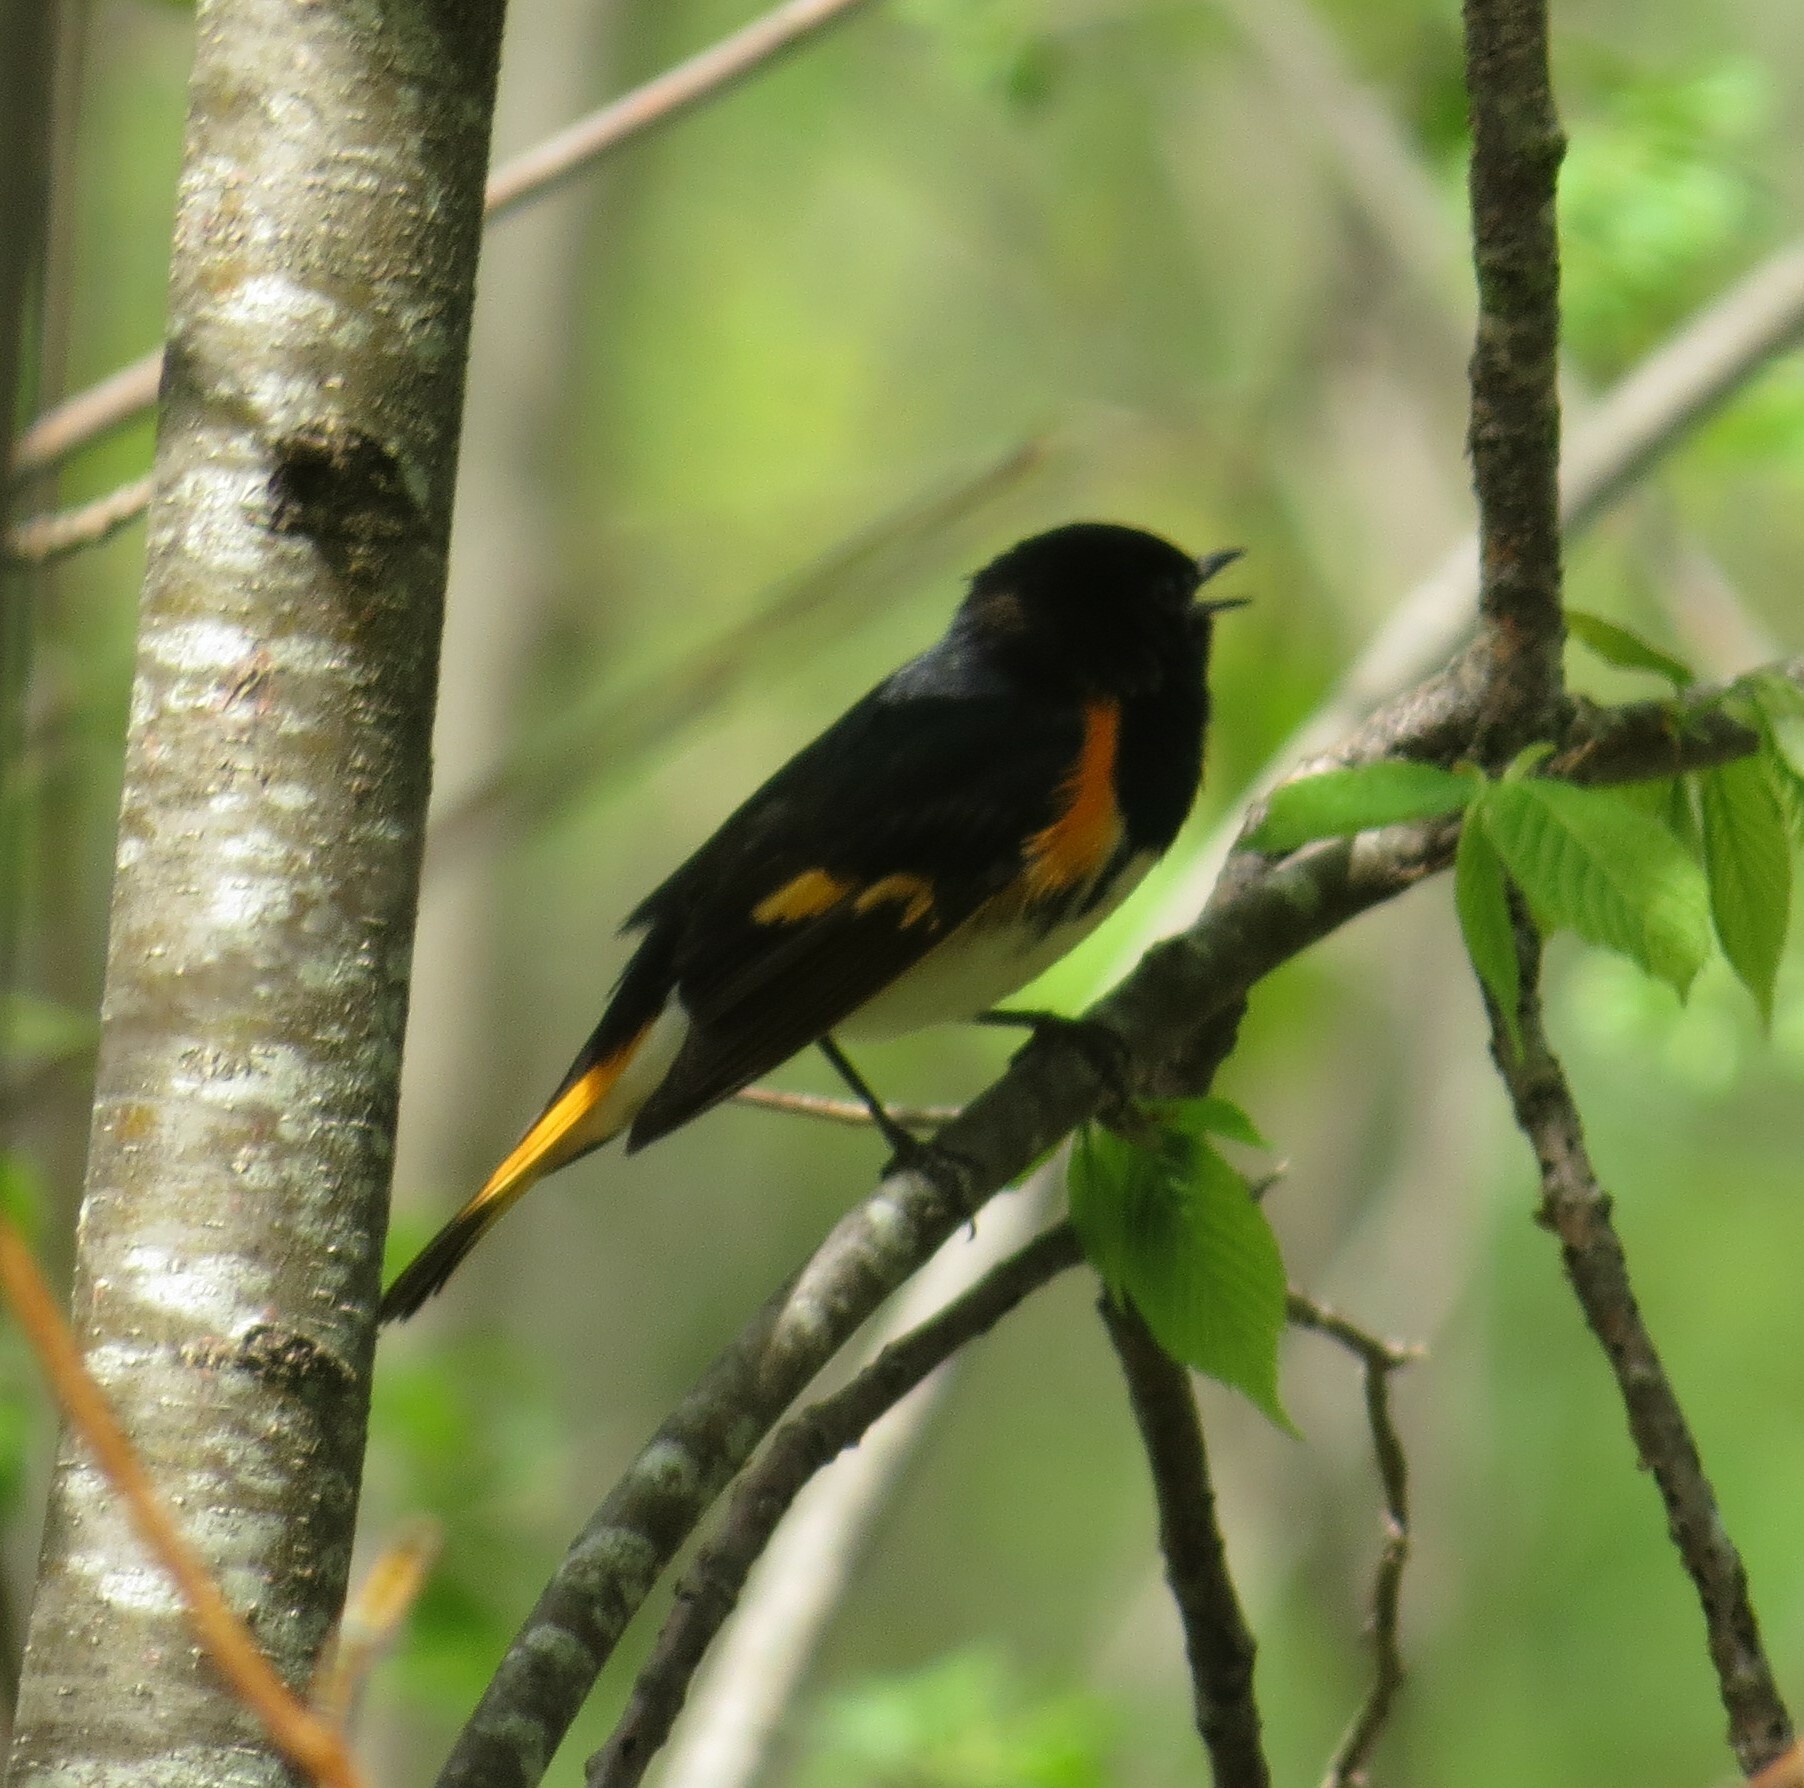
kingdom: Animalia
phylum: Chordata
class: Aves
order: Passeriformes
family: Parulidae
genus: Setophaga
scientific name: Setophaga ruticilla
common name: American redstart
